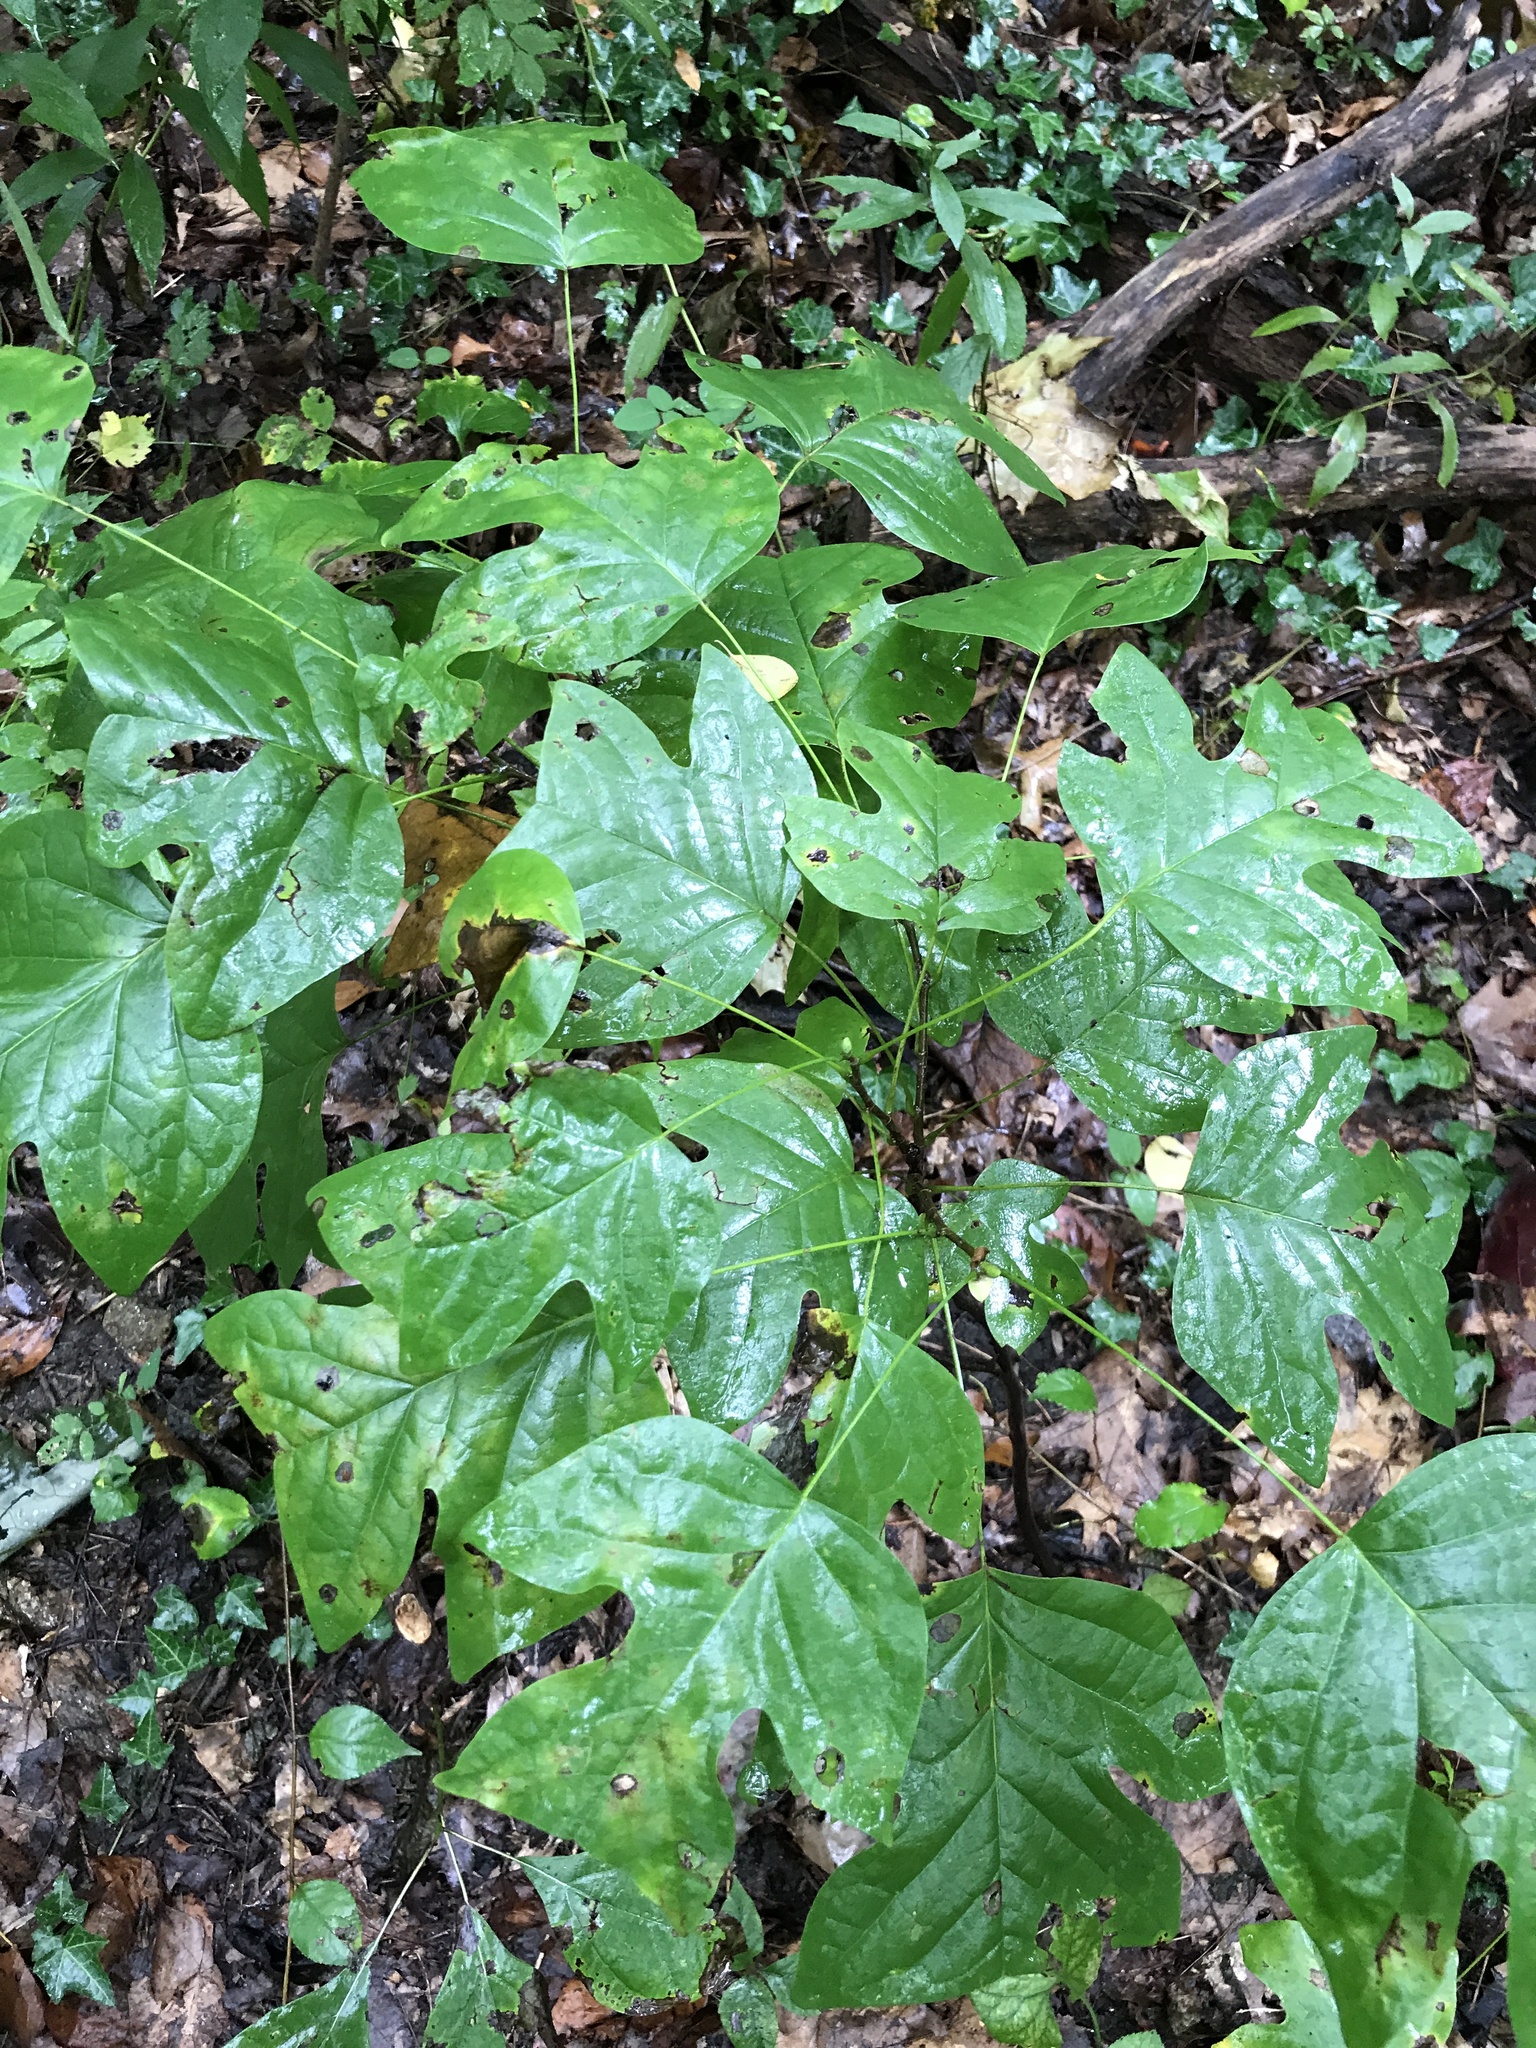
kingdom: Plantae
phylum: Tracheophyta
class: Magnoliopsida
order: Magnoliales
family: Magnoliaceae
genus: Liriodendron
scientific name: Liriodendron tulipifera
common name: Tulip tree
